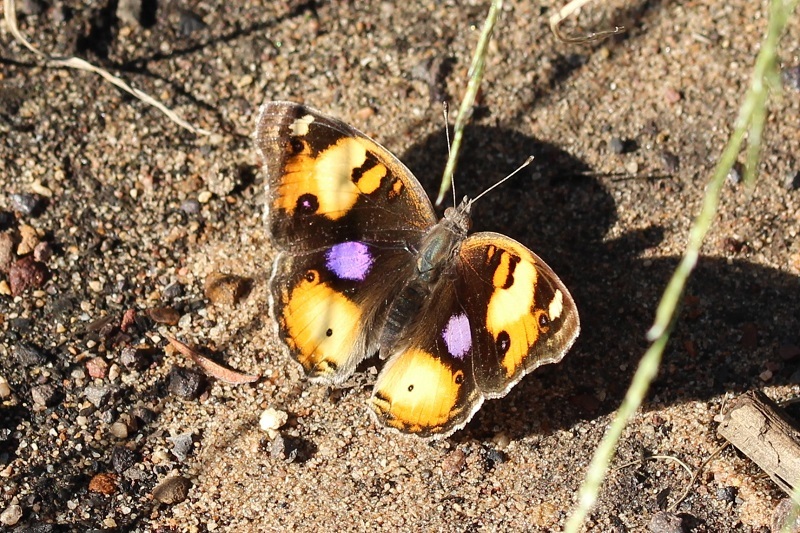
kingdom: Animalia
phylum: Arthropoda
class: Insecta
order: Lepidoptera
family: Nymphalidae
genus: Junonia
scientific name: Junonia hierta
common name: Yellow pansy
